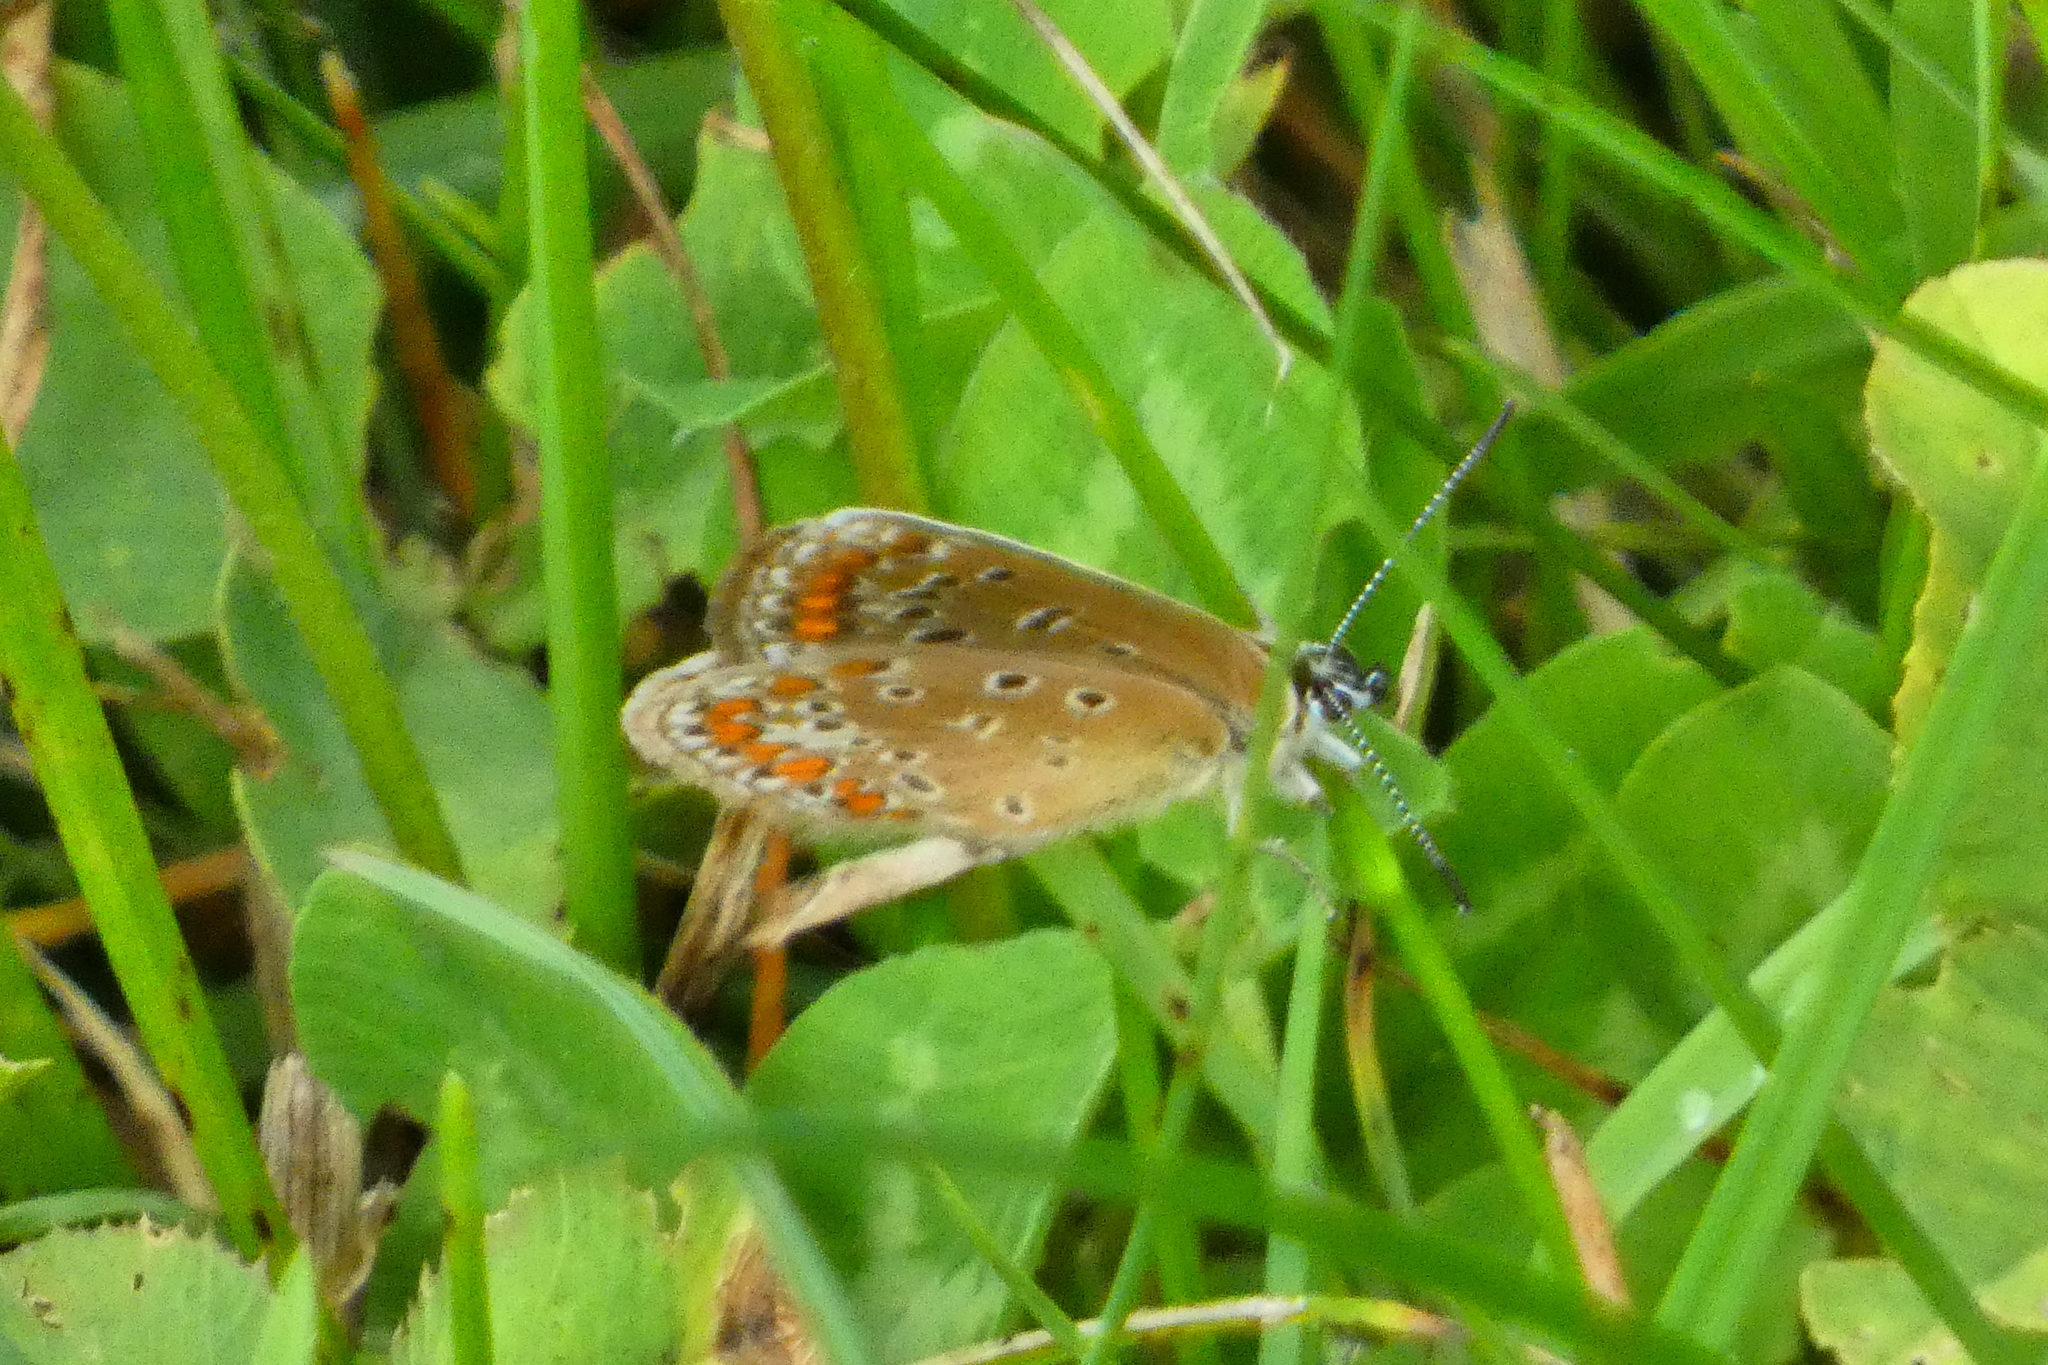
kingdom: Animalia
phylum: Arthropoda
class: Insecta
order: Lepidoptera
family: Lycaenidae
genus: Polyommatus
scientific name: Polyommatus icarus
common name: Common blue
